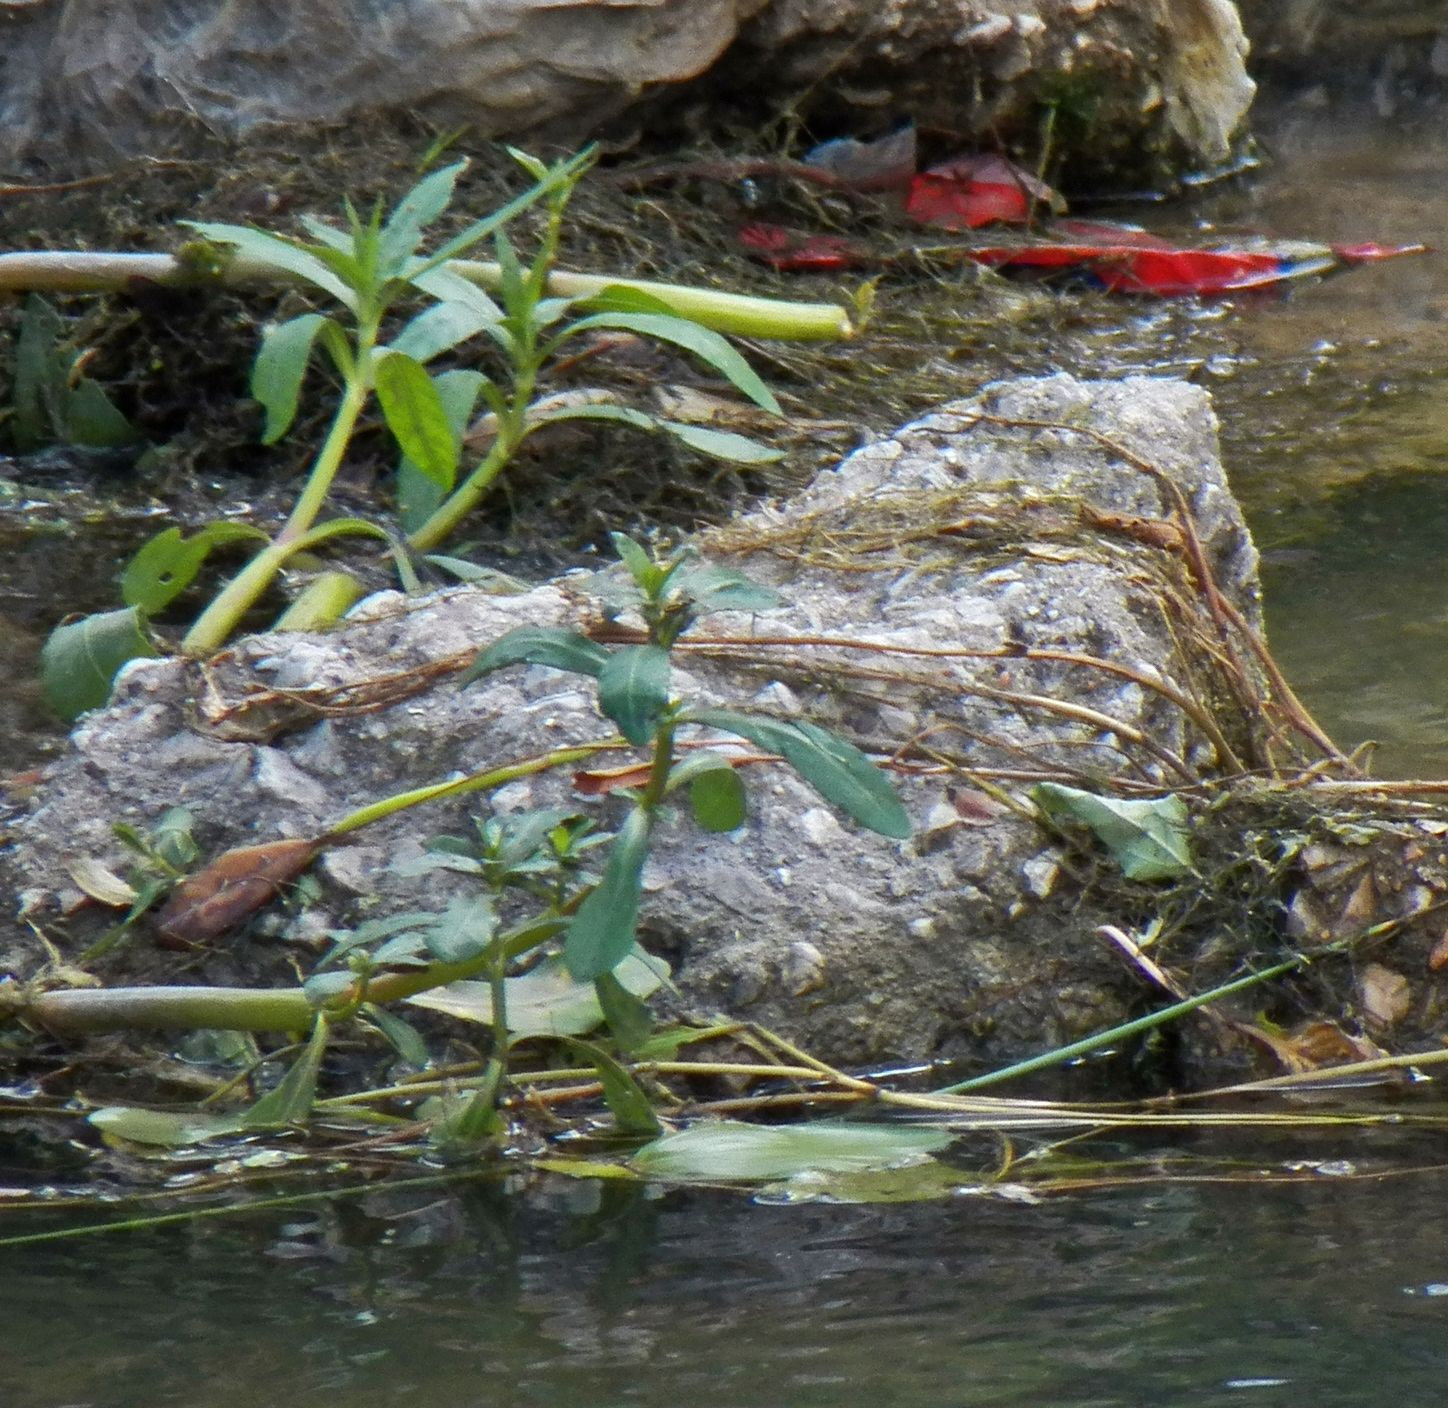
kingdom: Plantae
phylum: Tracheophyta
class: Magnoliopsida
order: Caryophyllales
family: Amaranthaceae
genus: Alternanthera
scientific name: Alternanthera philoxeroides
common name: Alligatorweed
